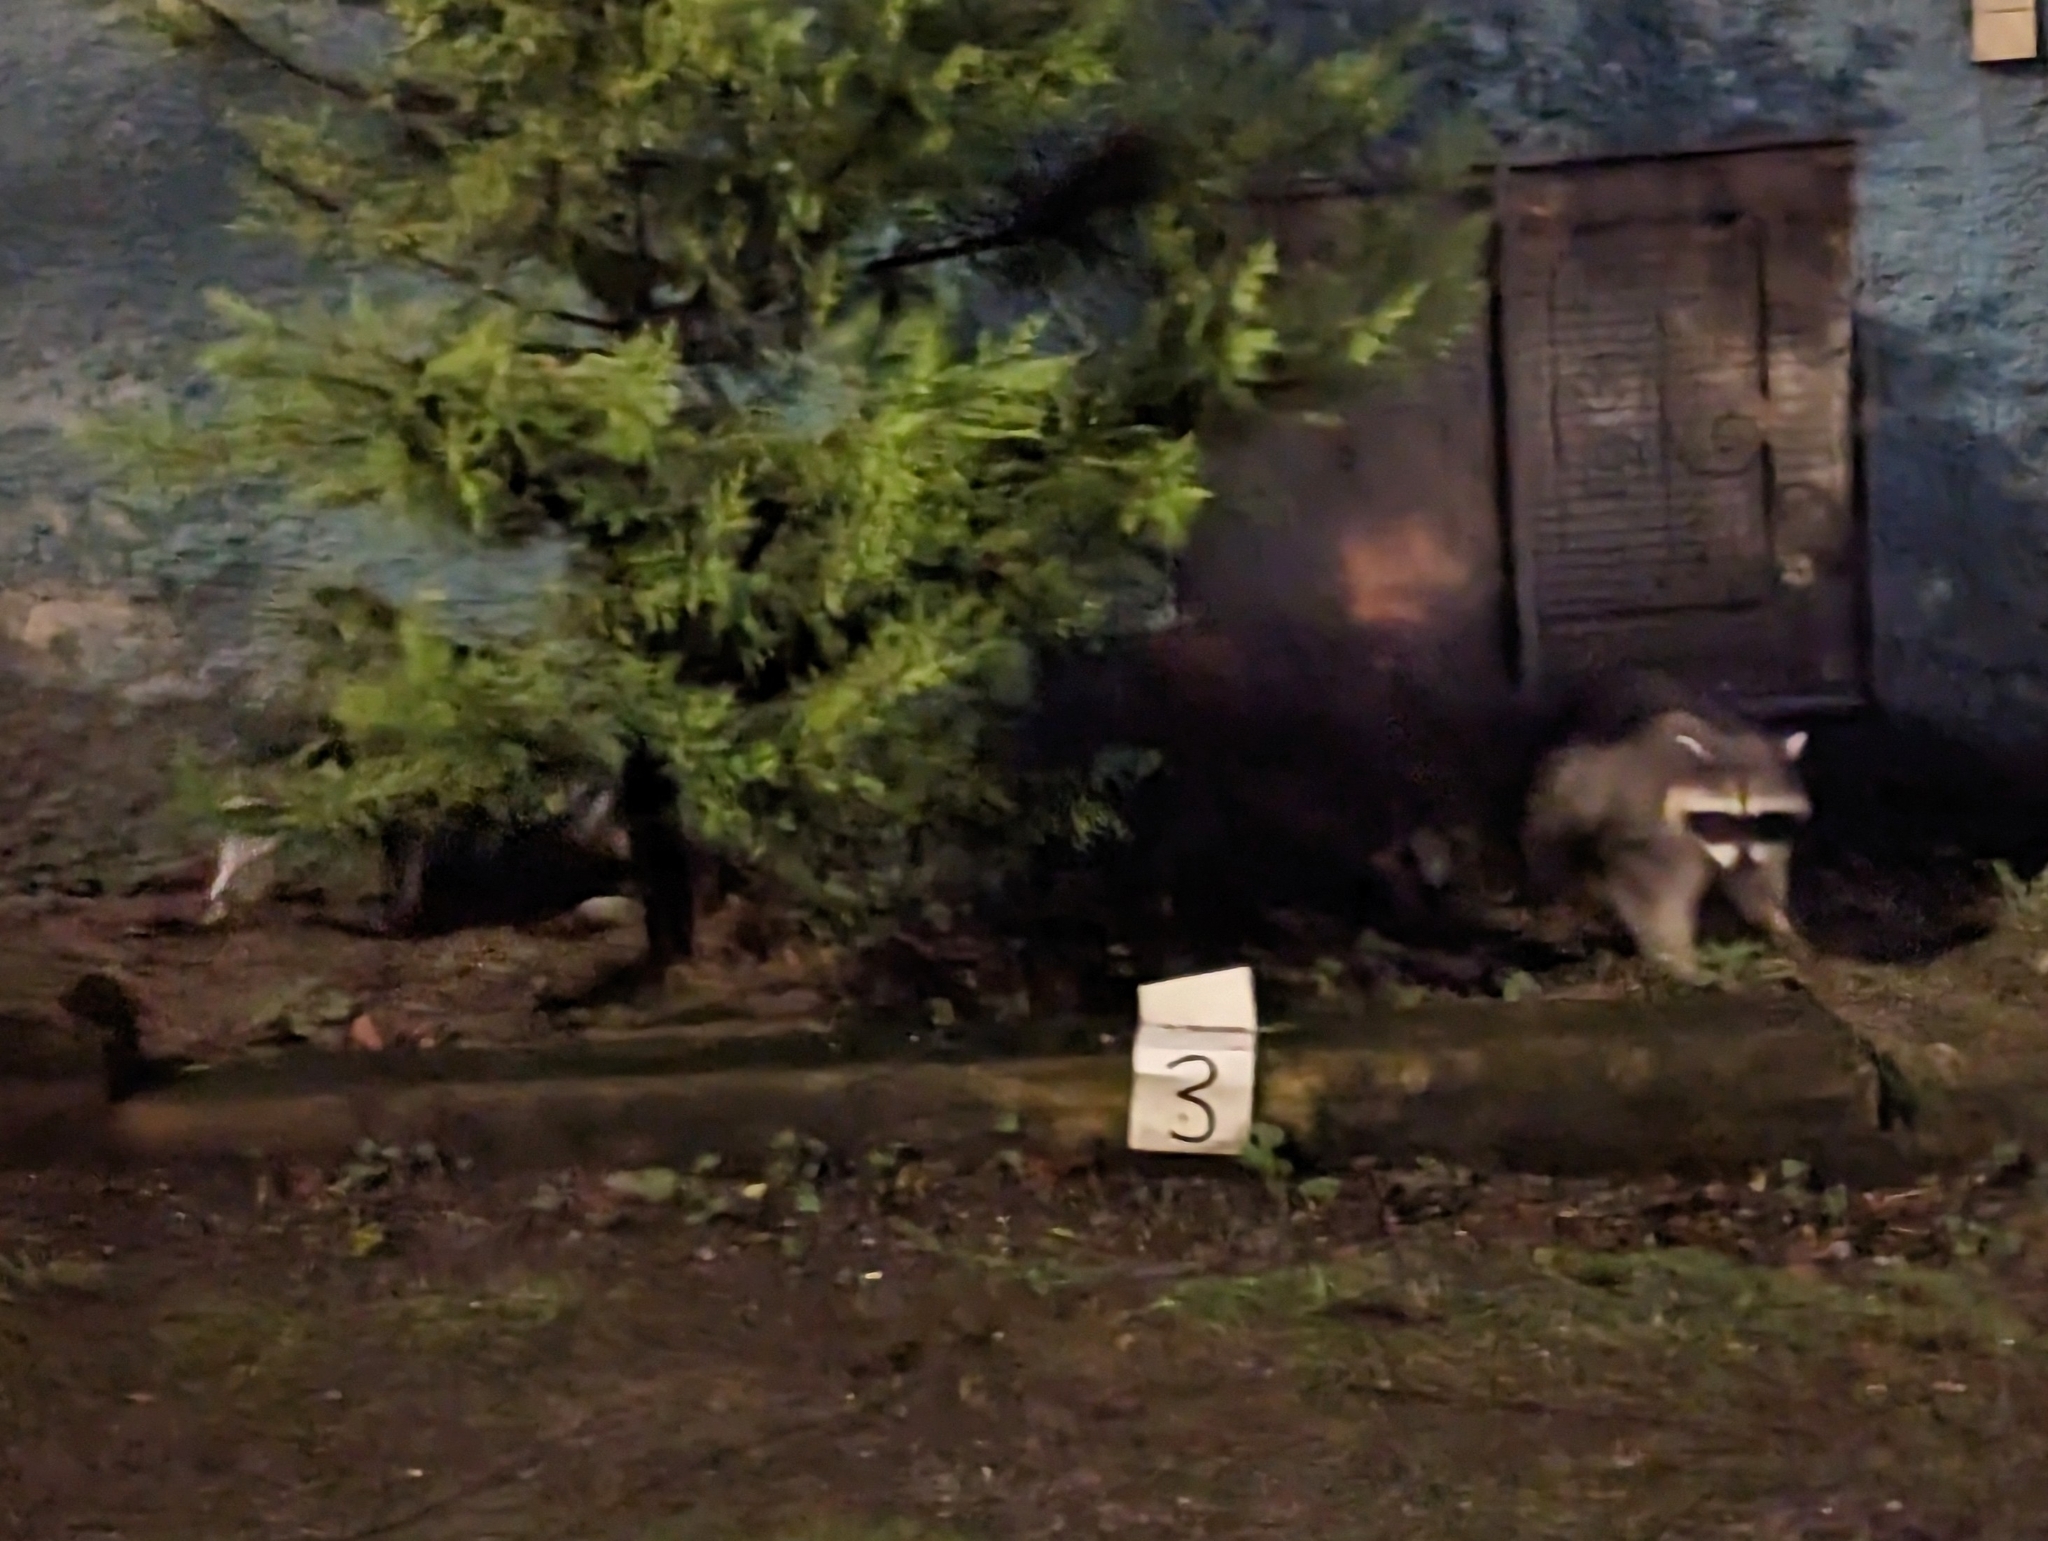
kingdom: Animalia
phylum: Chordata
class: Mammalia
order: Carnivora
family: Procyonidae
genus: Procyon
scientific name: Procyon lotor
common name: Raccoon
